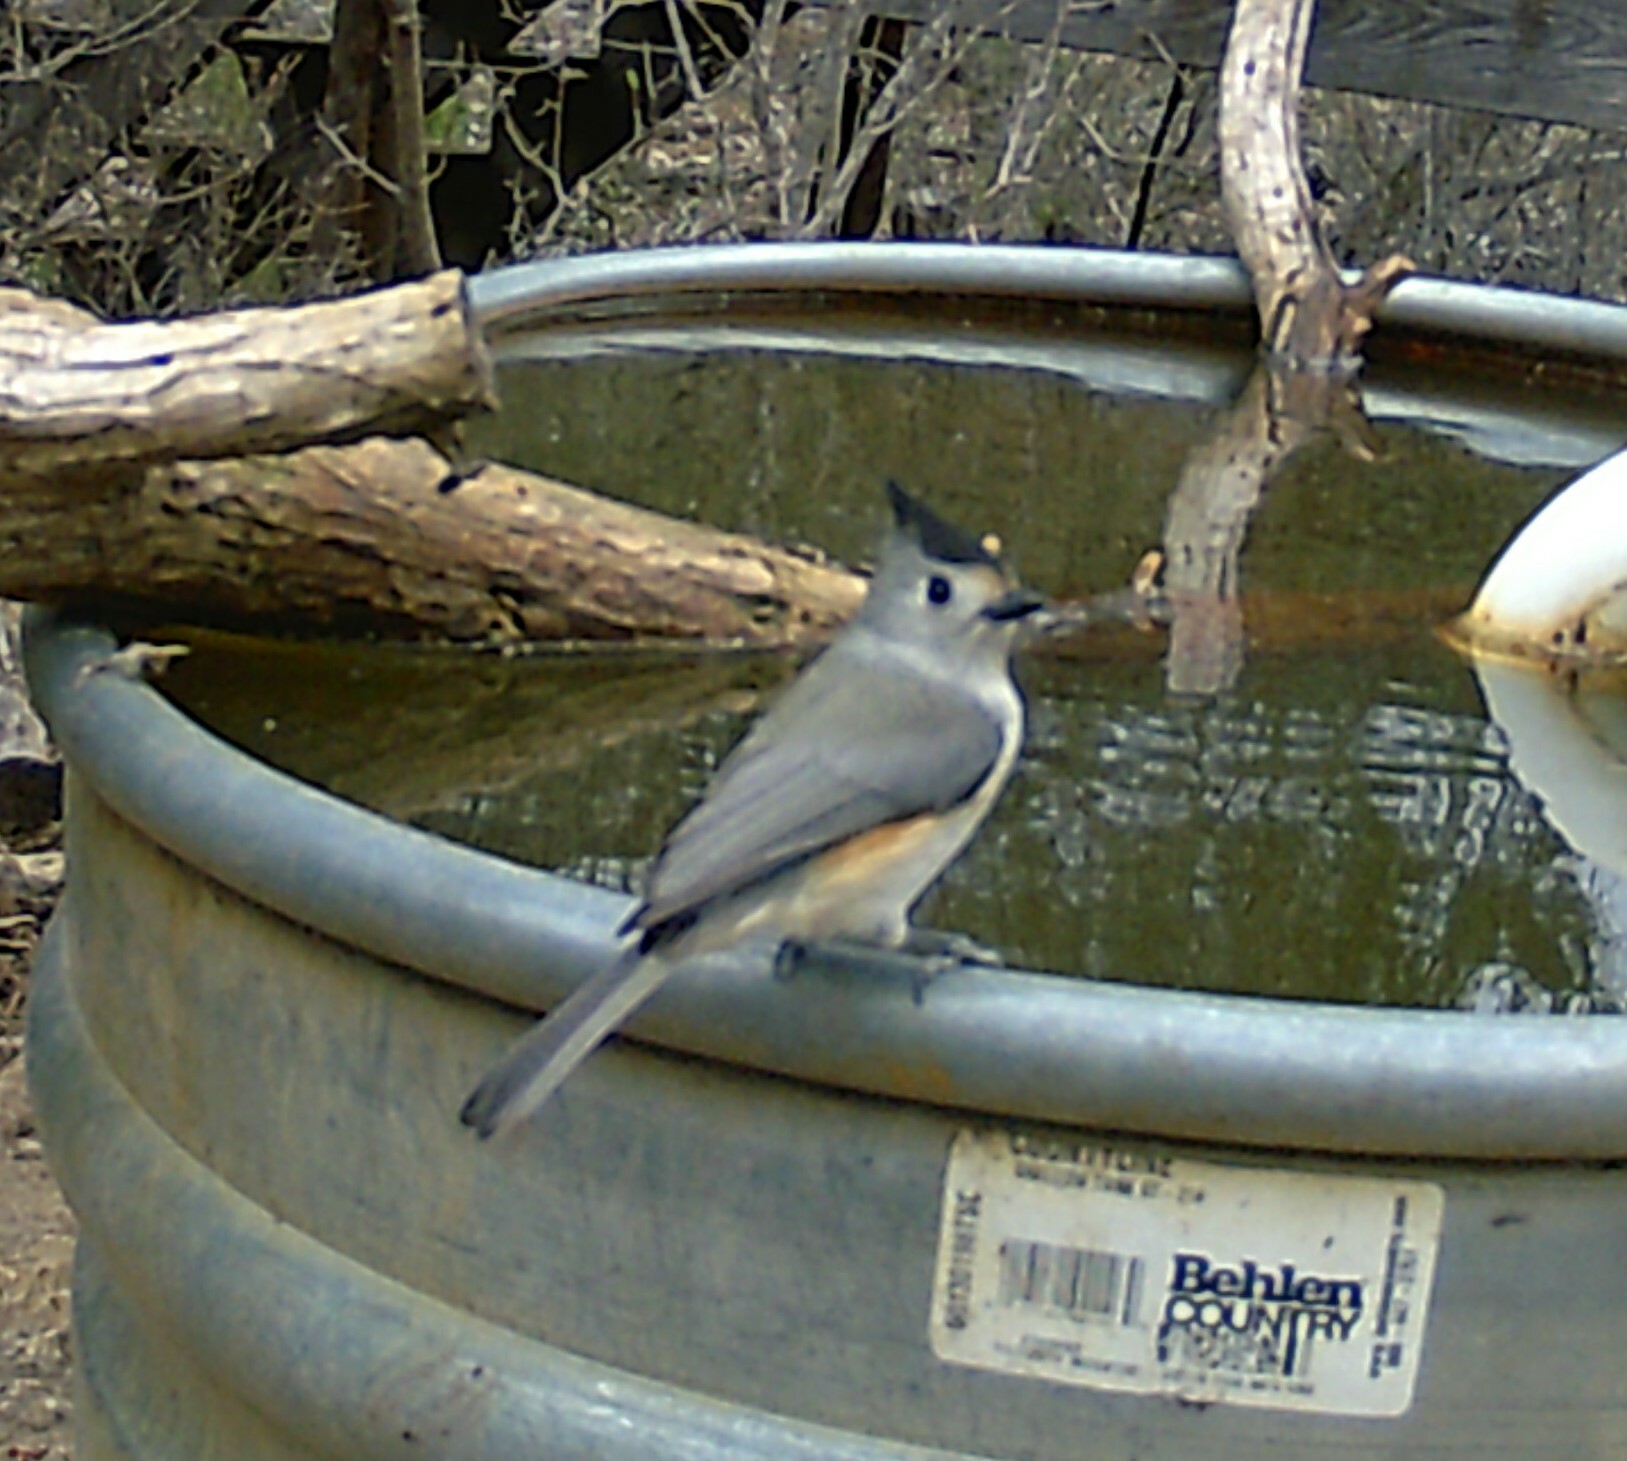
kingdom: Animalia
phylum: Chordata
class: Aves
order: Passeriformes
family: Paridae
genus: Baeolophus
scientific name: Baeolophus atricristatus
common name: Black-crested titmouse
